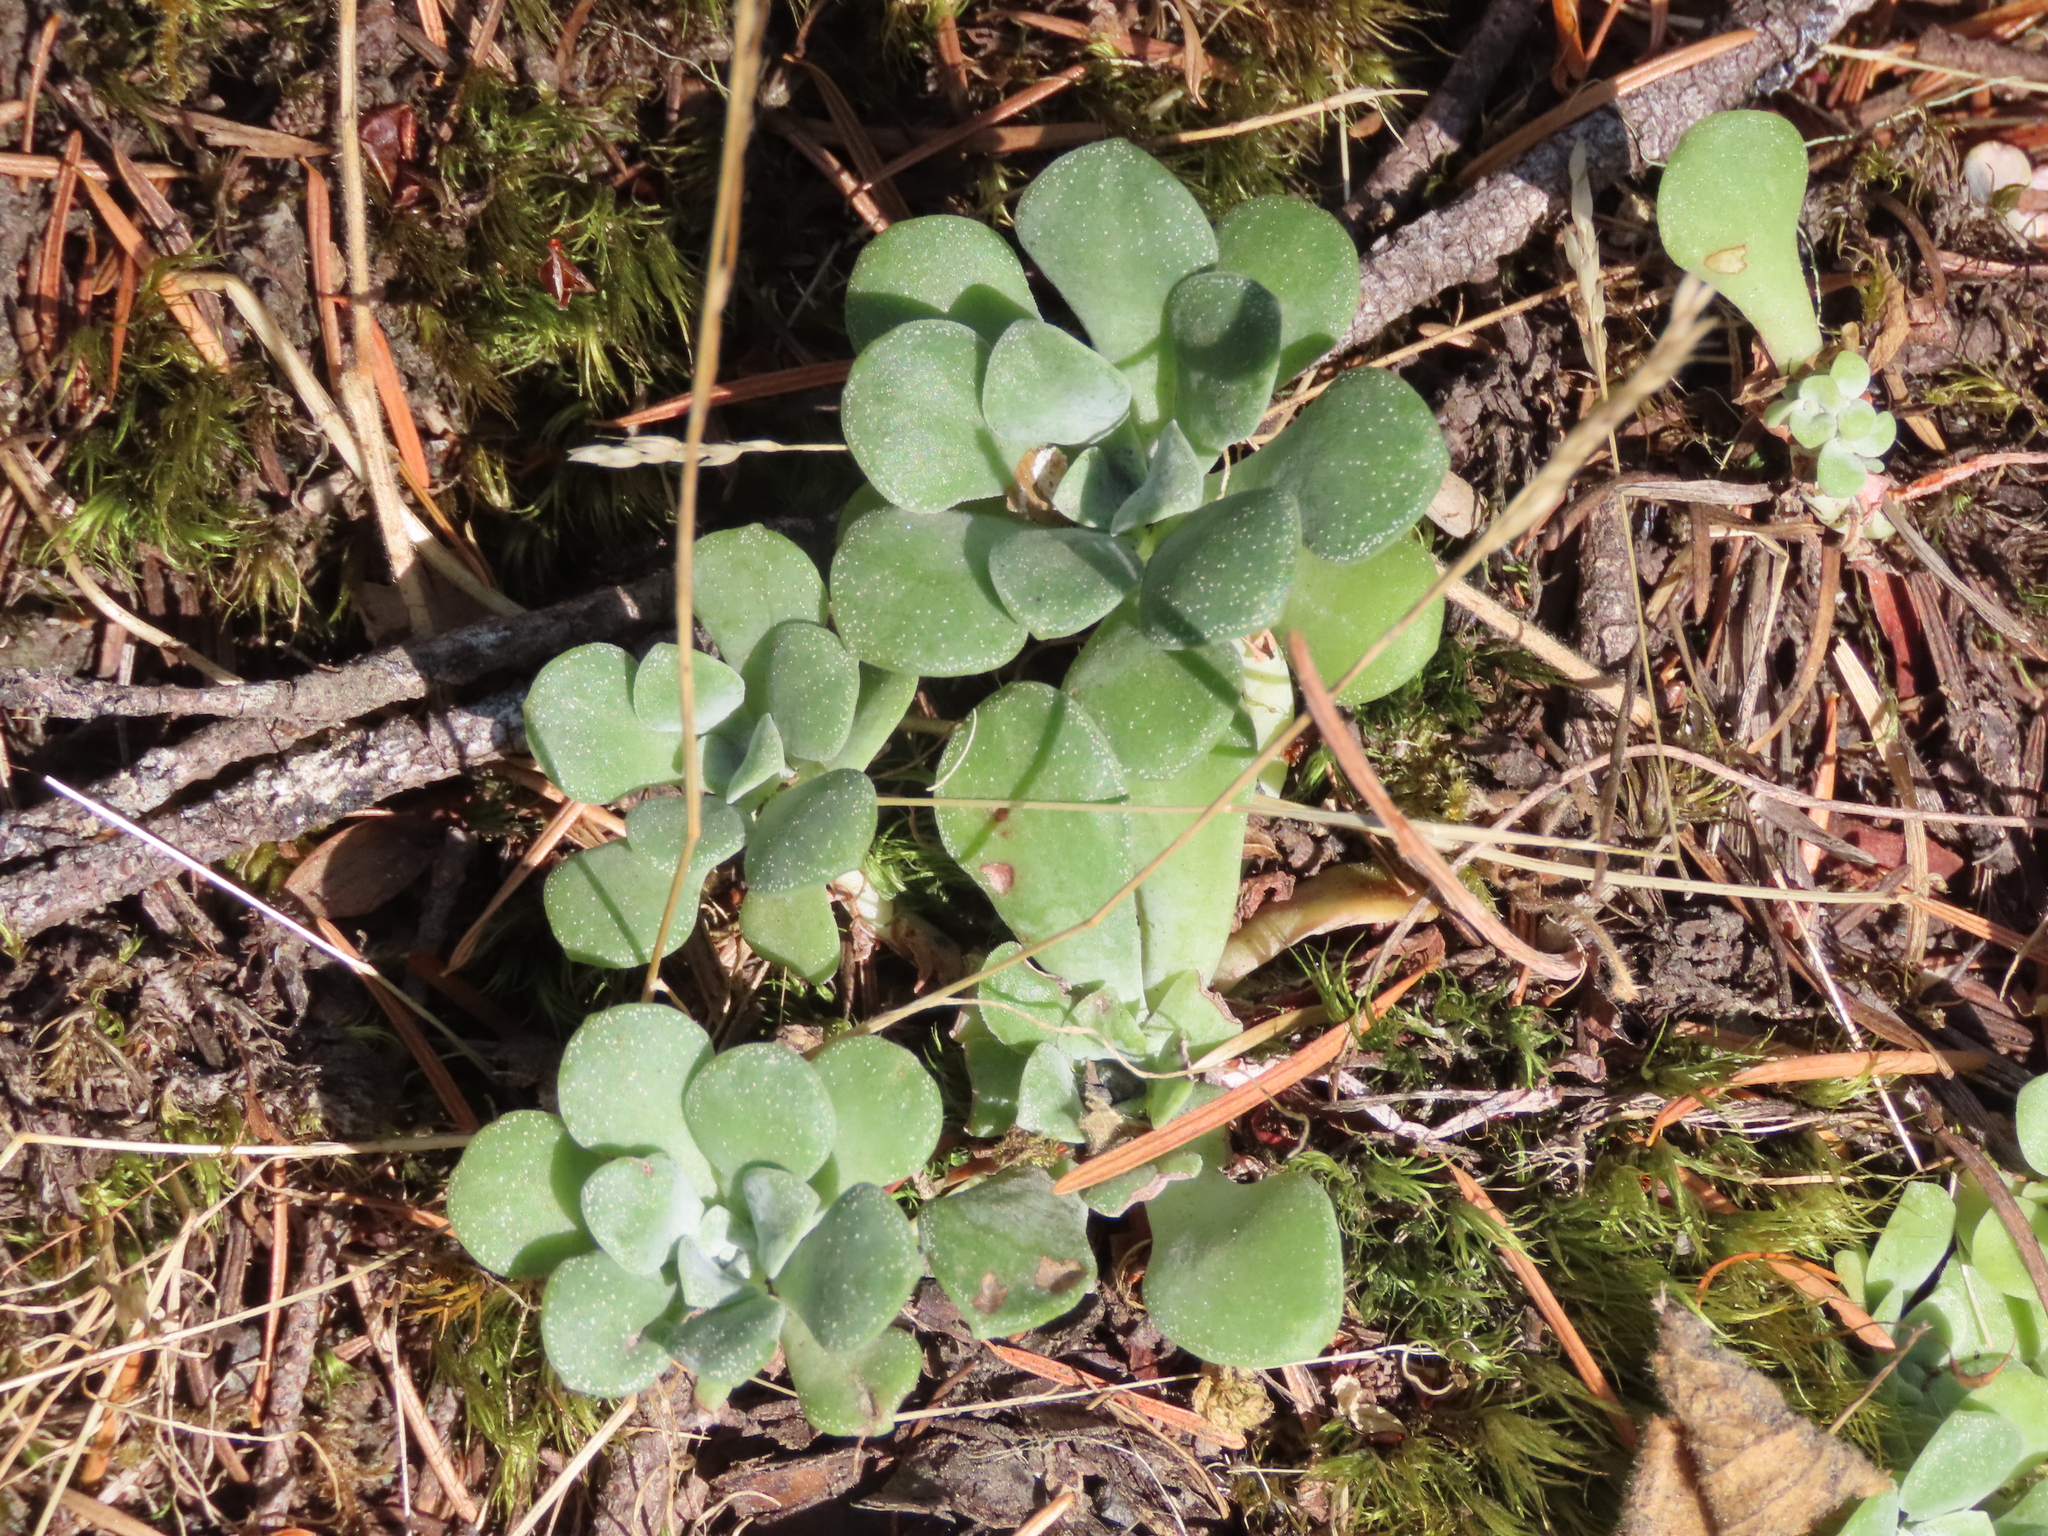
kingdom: Plantae
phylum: Tracheophyta
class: Magnoliopsida
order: Saxifragales
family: Crassulaceae
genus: Sedum
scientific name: Sedum spathulifolium
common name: Colorado stonecrop
